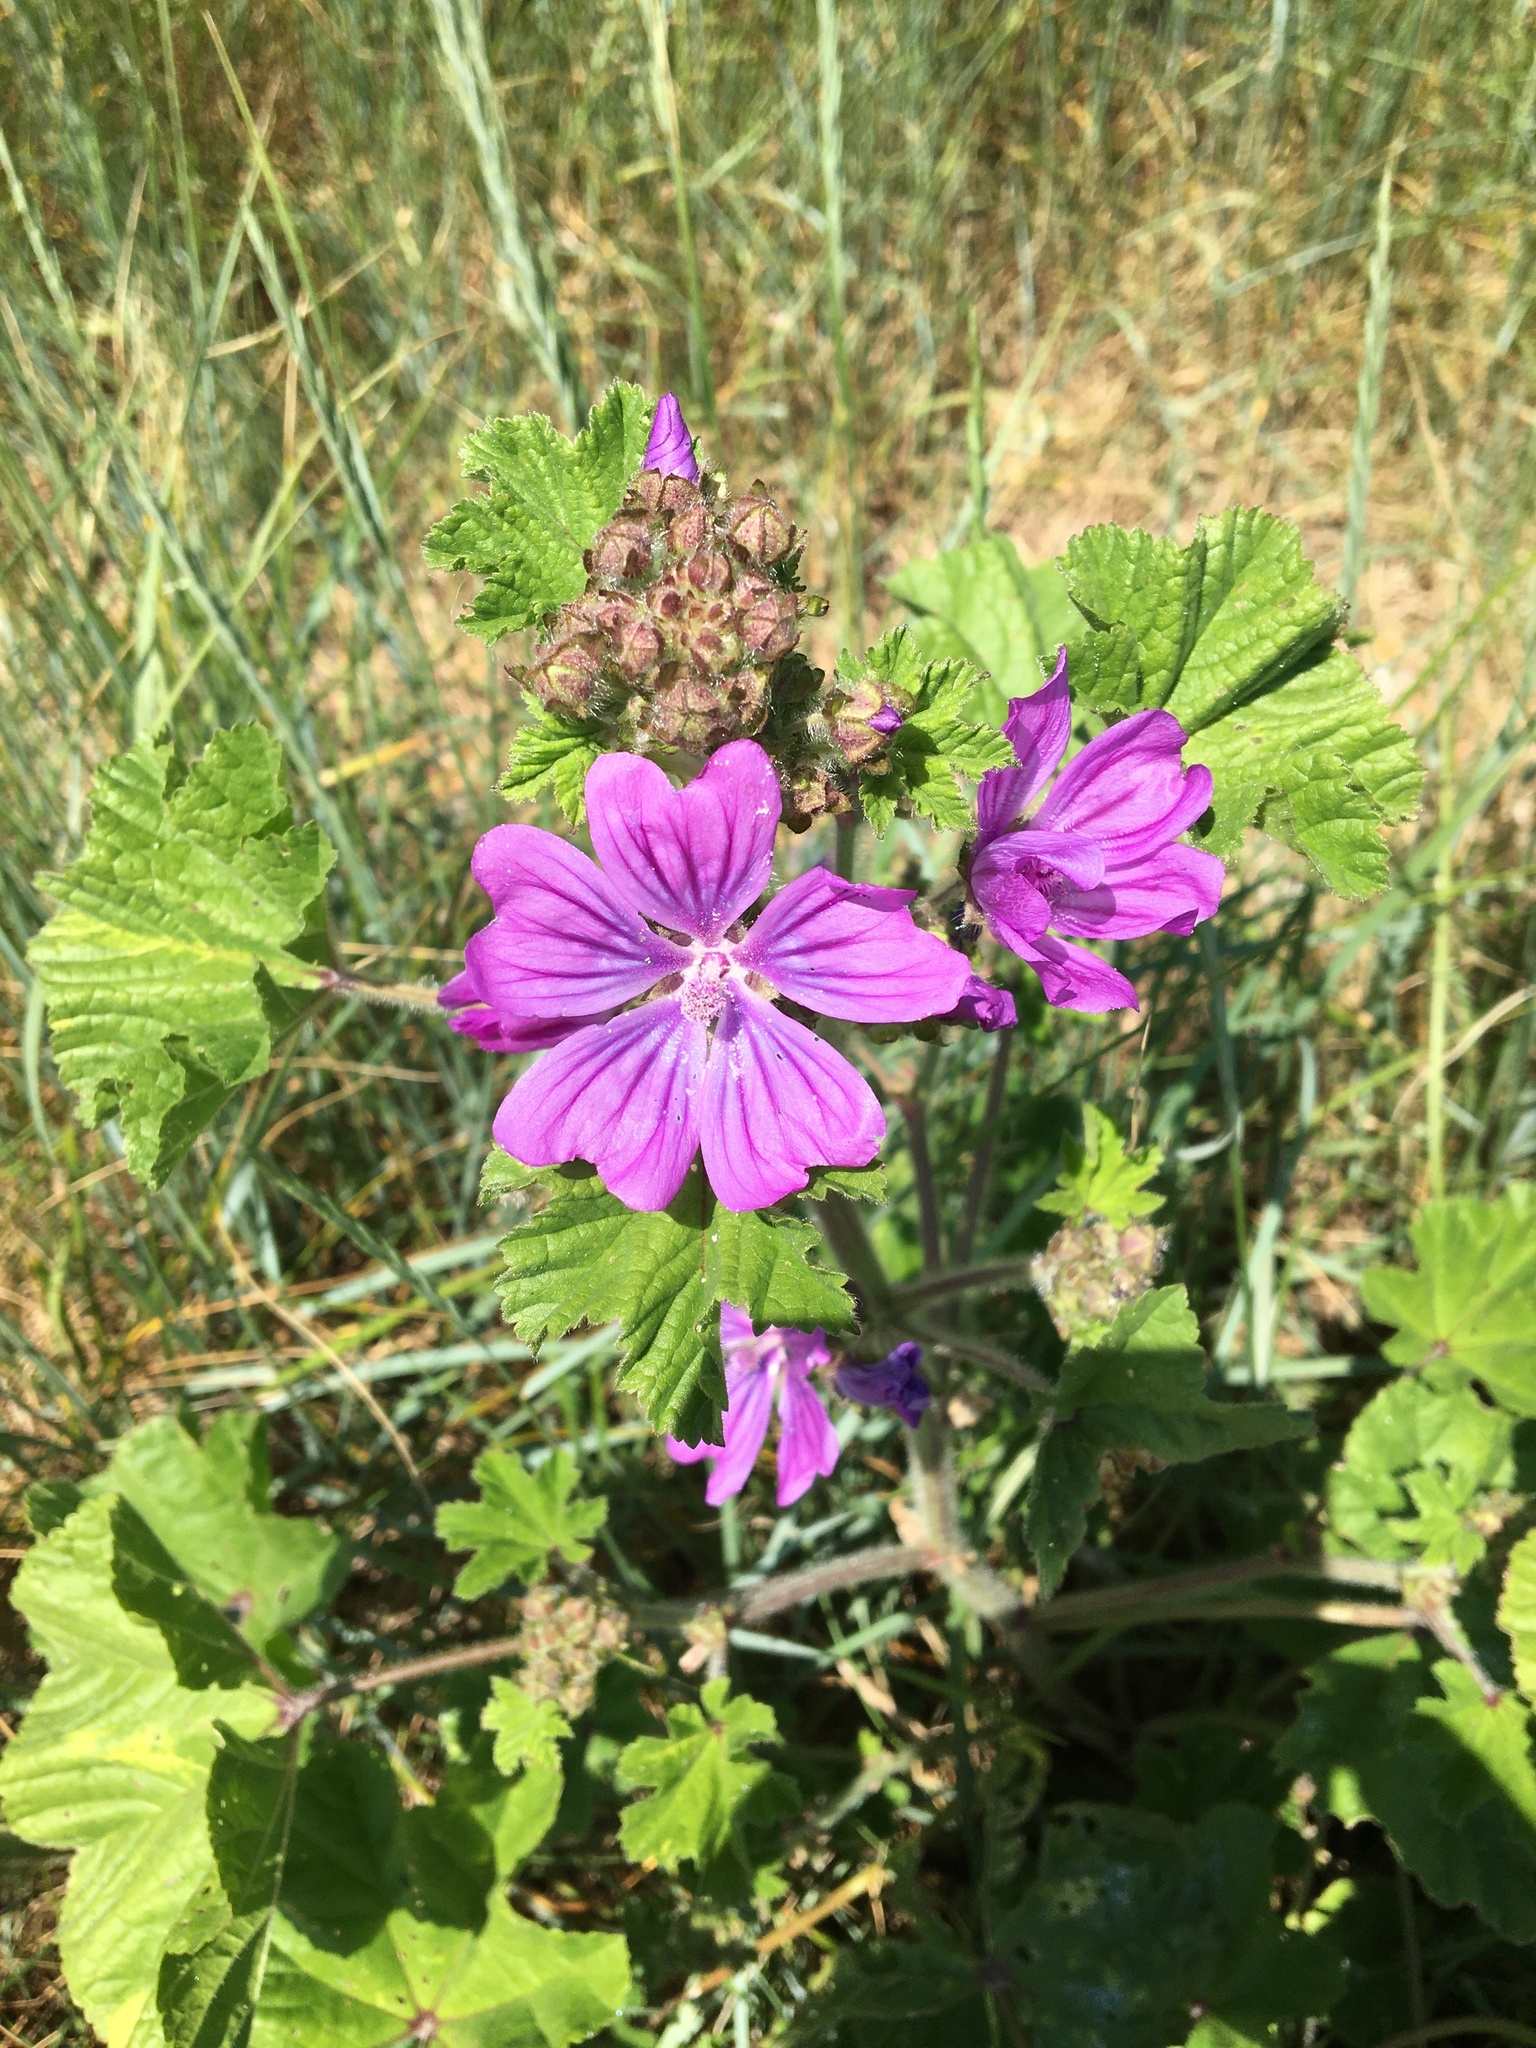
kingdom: Plantae
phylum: Tracheophyta
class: Magnoliopsida
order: Malvales
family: Malvaceae
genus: Malva
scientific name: Malva sylvestris
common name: Common mallow
